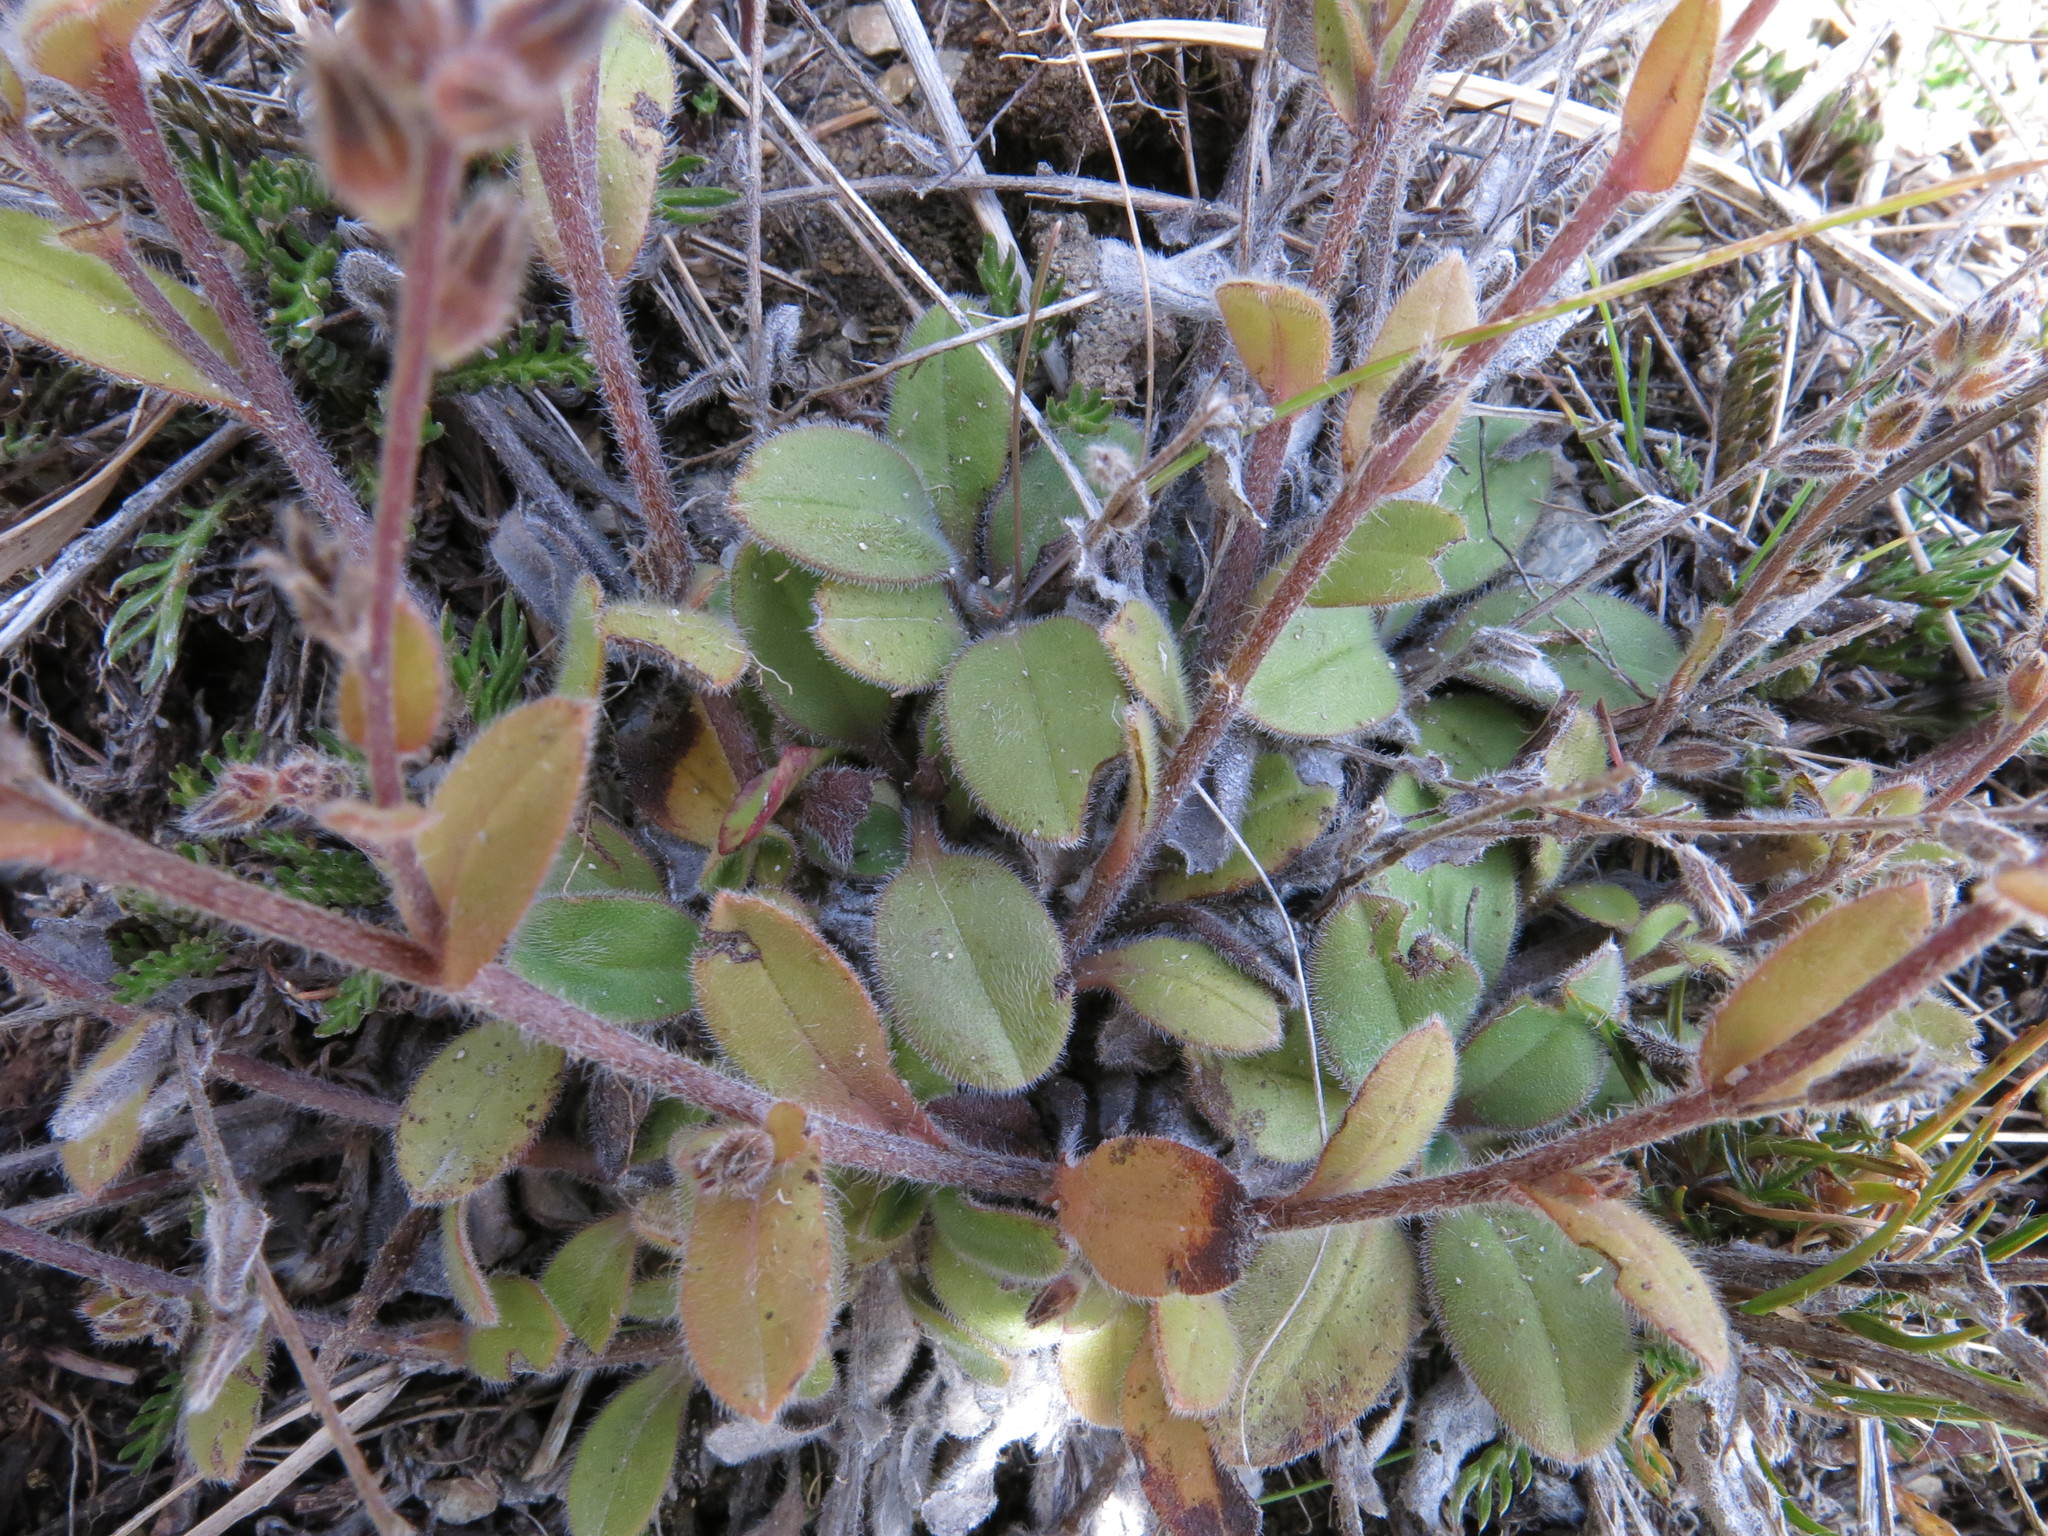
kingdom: Plantae
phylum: Tracheophyta
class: Magnoliopsida
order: Boraginales
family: Boraginaceae
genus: Myosotis
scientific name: Myosotis australis
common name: Australian forget-me-not
